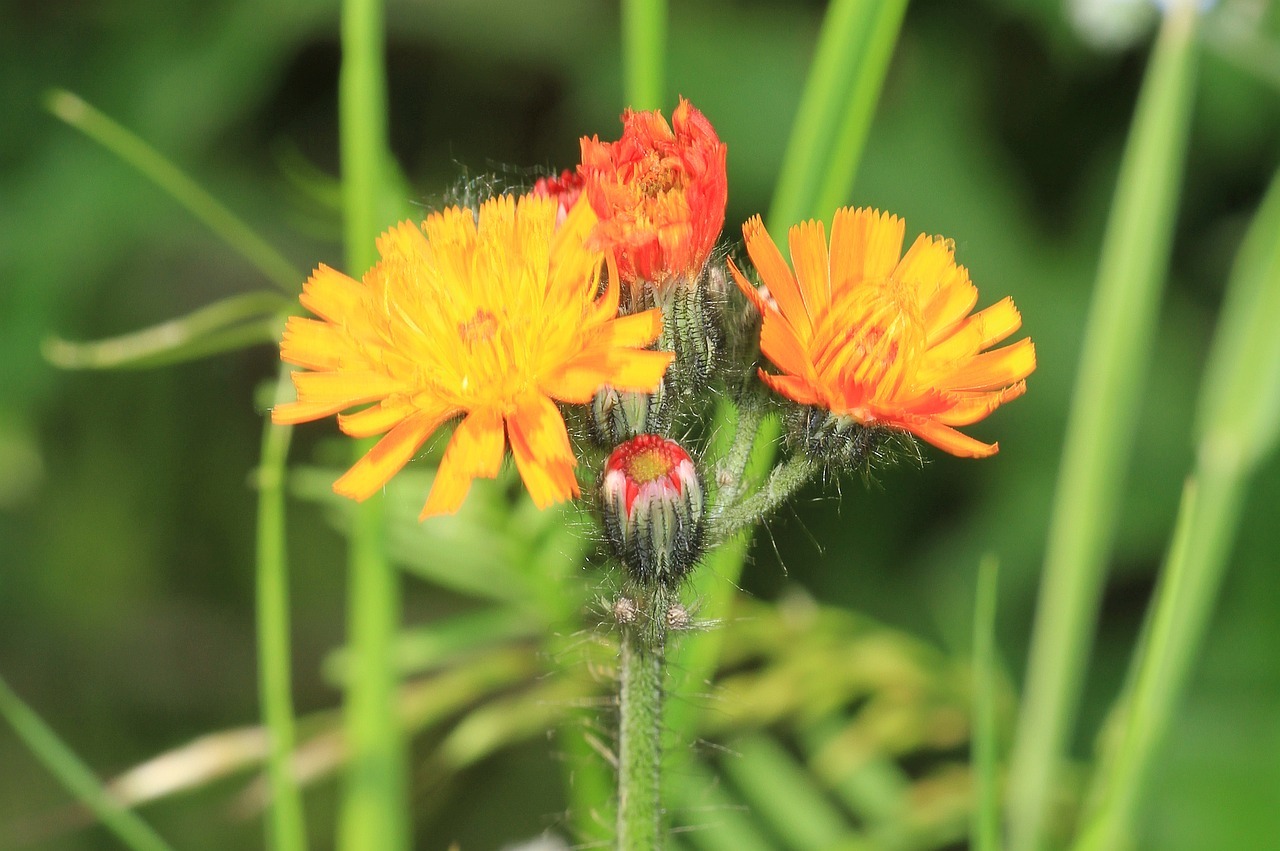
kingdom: Plantae
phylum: Tracheophyta
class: Magnoliopsida
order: Asterales
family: Asteraceae
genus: Pilosella
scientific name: Pilosella aurantiaca
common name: Fox-and-cubs
